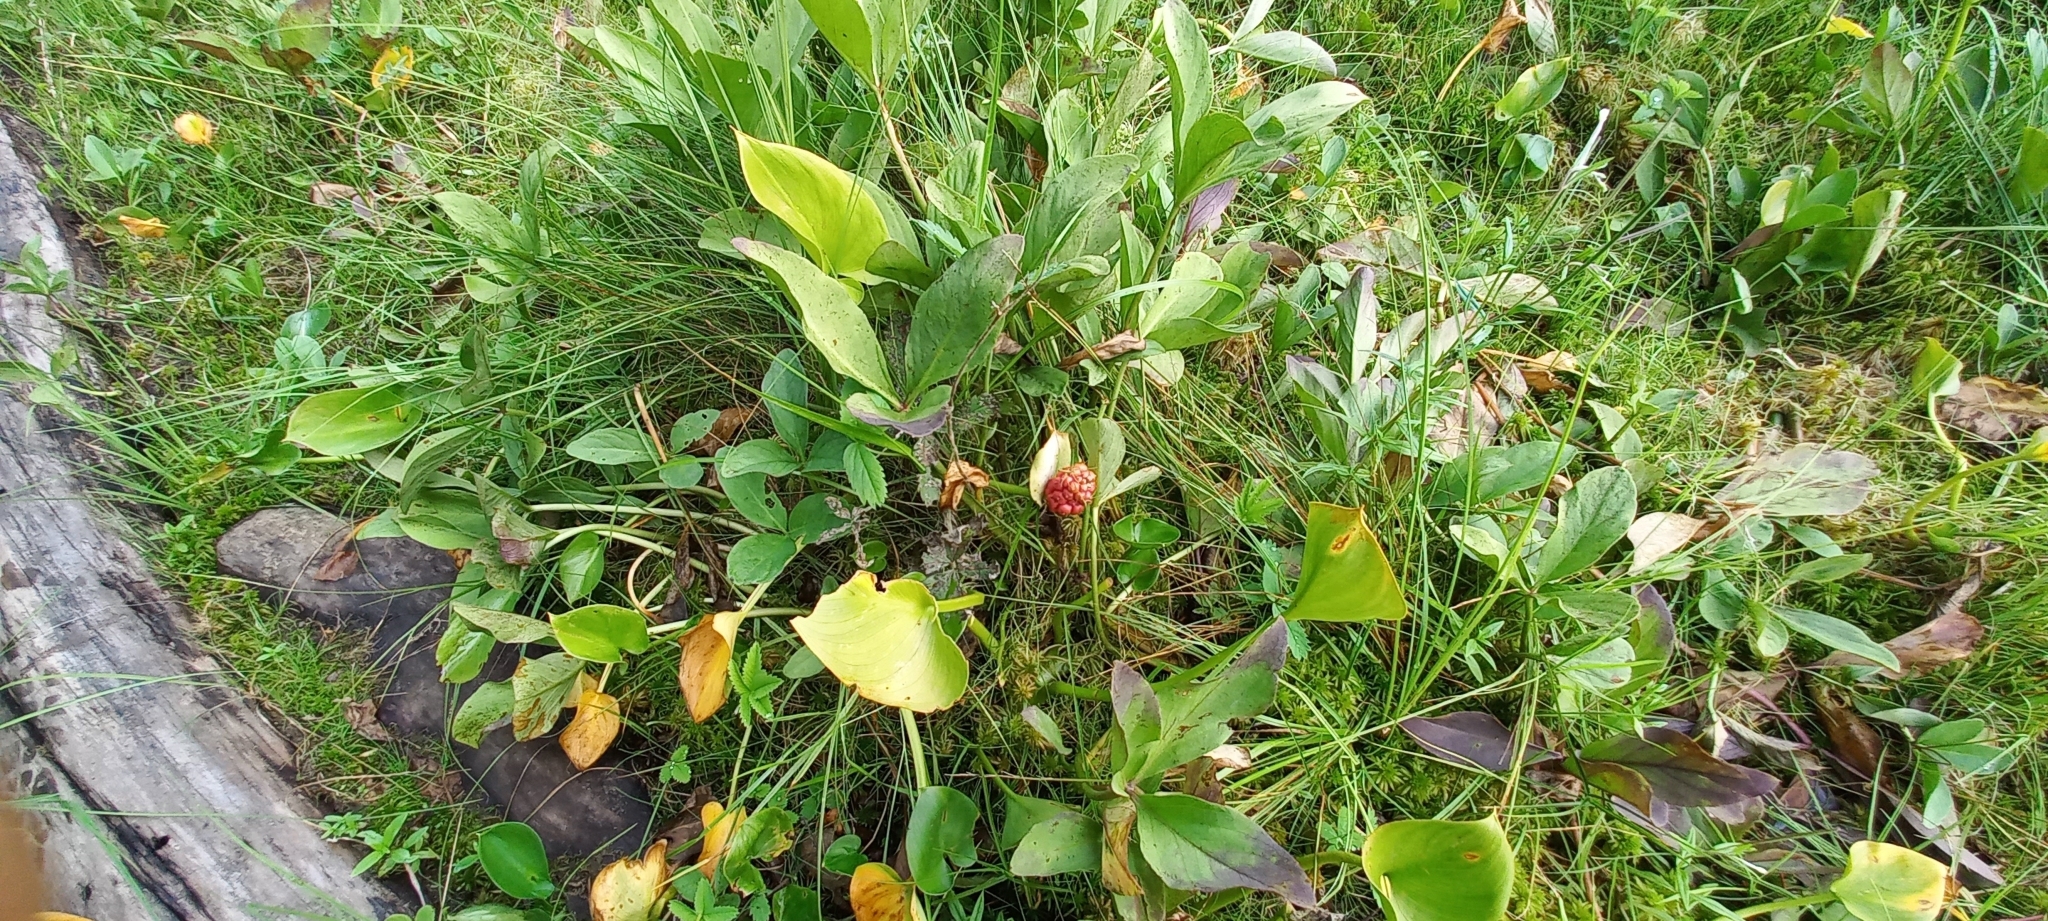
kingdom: Plantae
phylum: Tracheophyta
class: Liliopsida
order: Alismatales
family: Araceae
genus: Calla
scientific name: Calla palustris
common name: Bog arum
